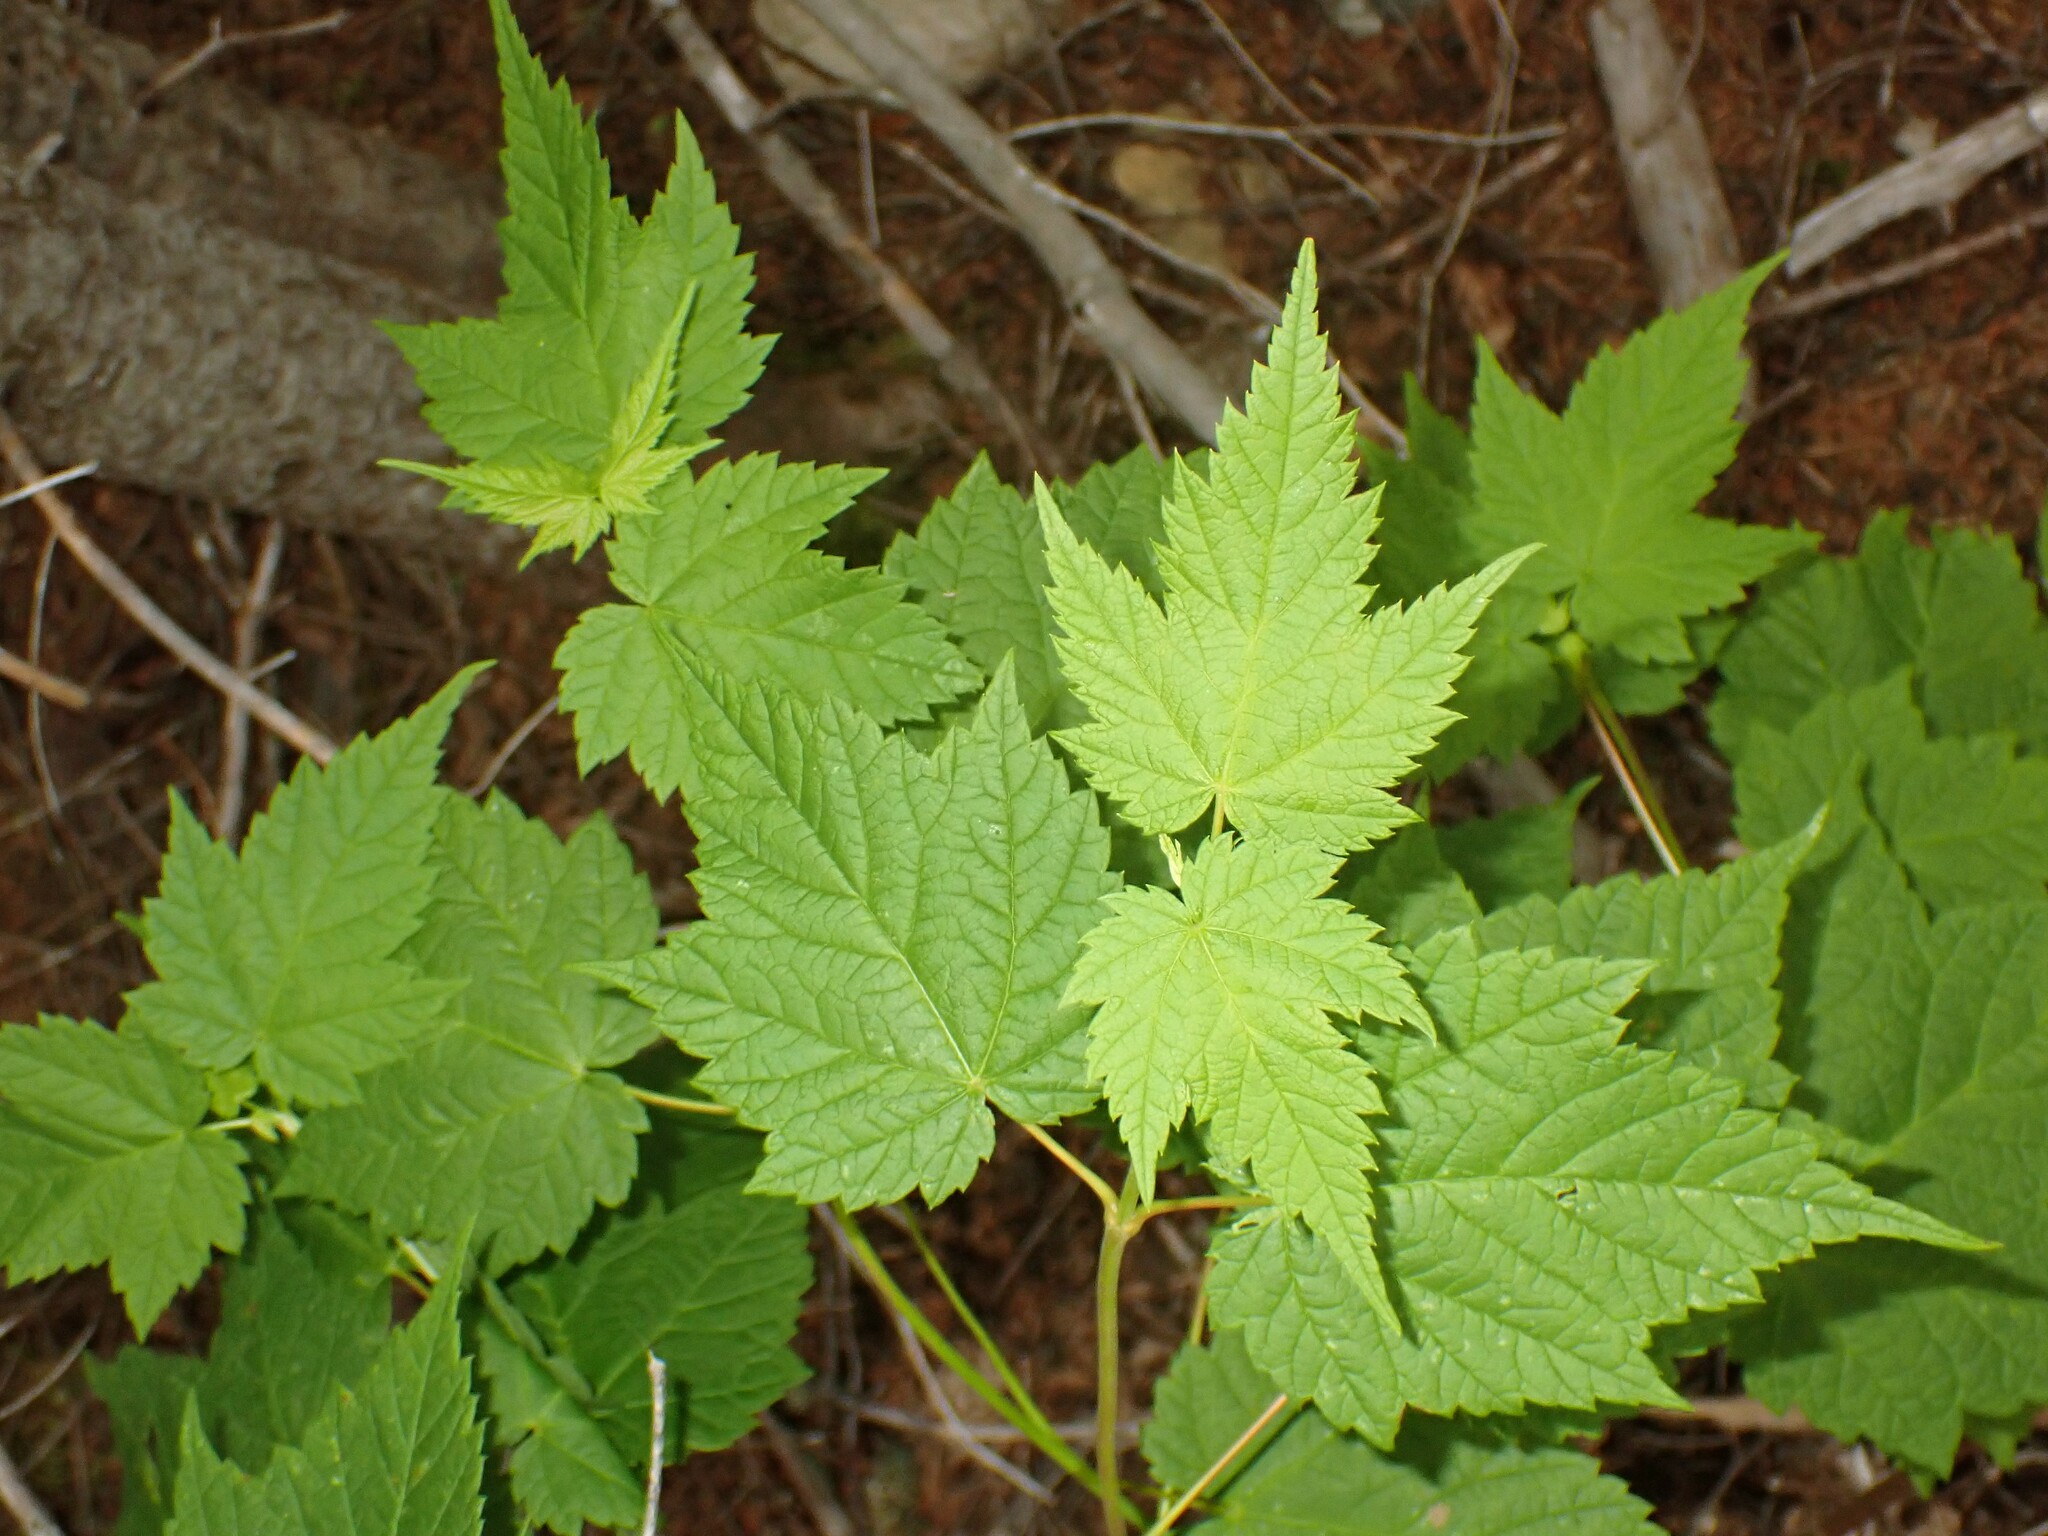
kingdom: Plantae
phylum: Tracheophyta
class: Magnoliopsida
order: Sapindales
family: Sapindaceae
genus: Acer
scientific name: Acer spicatum
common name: Mountain maple
